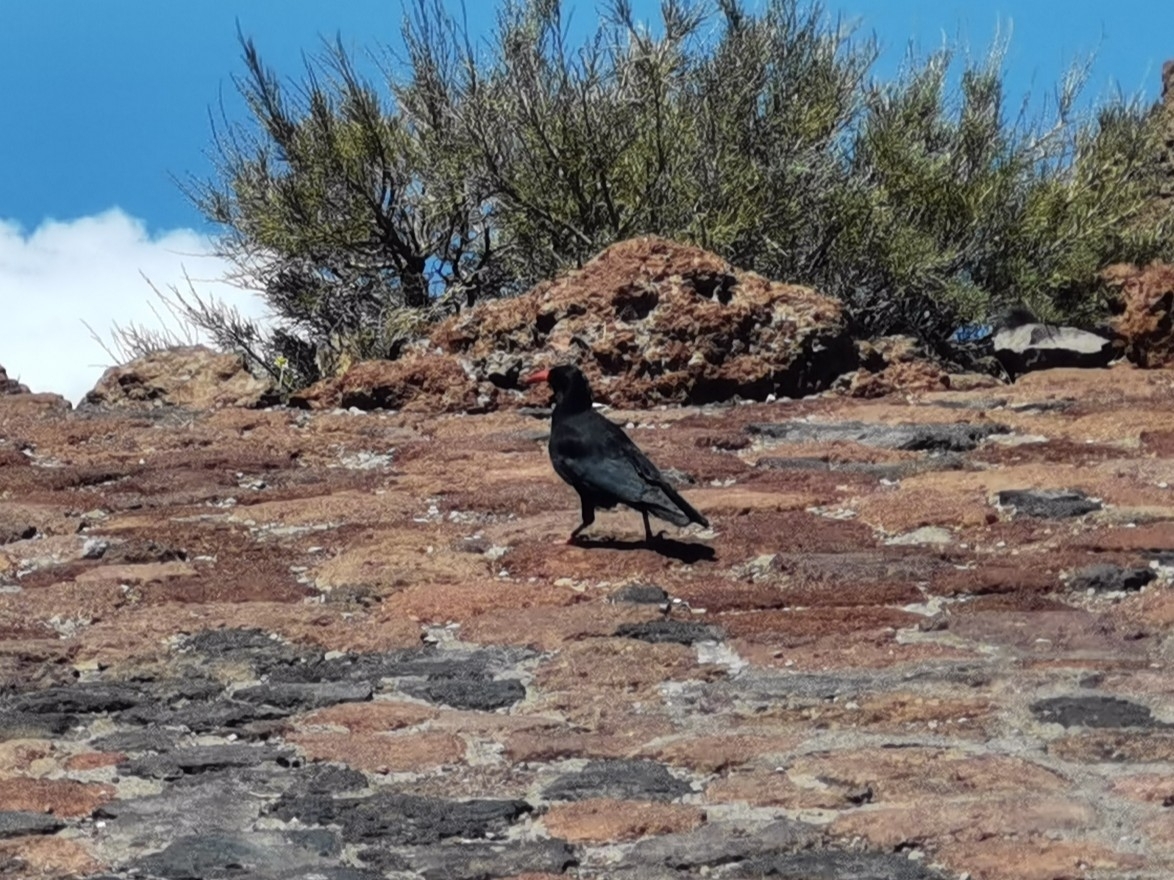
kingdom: Animalia
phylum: Chordata
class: Aves
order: Passeriformes
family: Corvidae
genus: Pyrrhocorax
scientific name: Pyrrhocorax pyrrhocorax
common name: Red-billed chough
